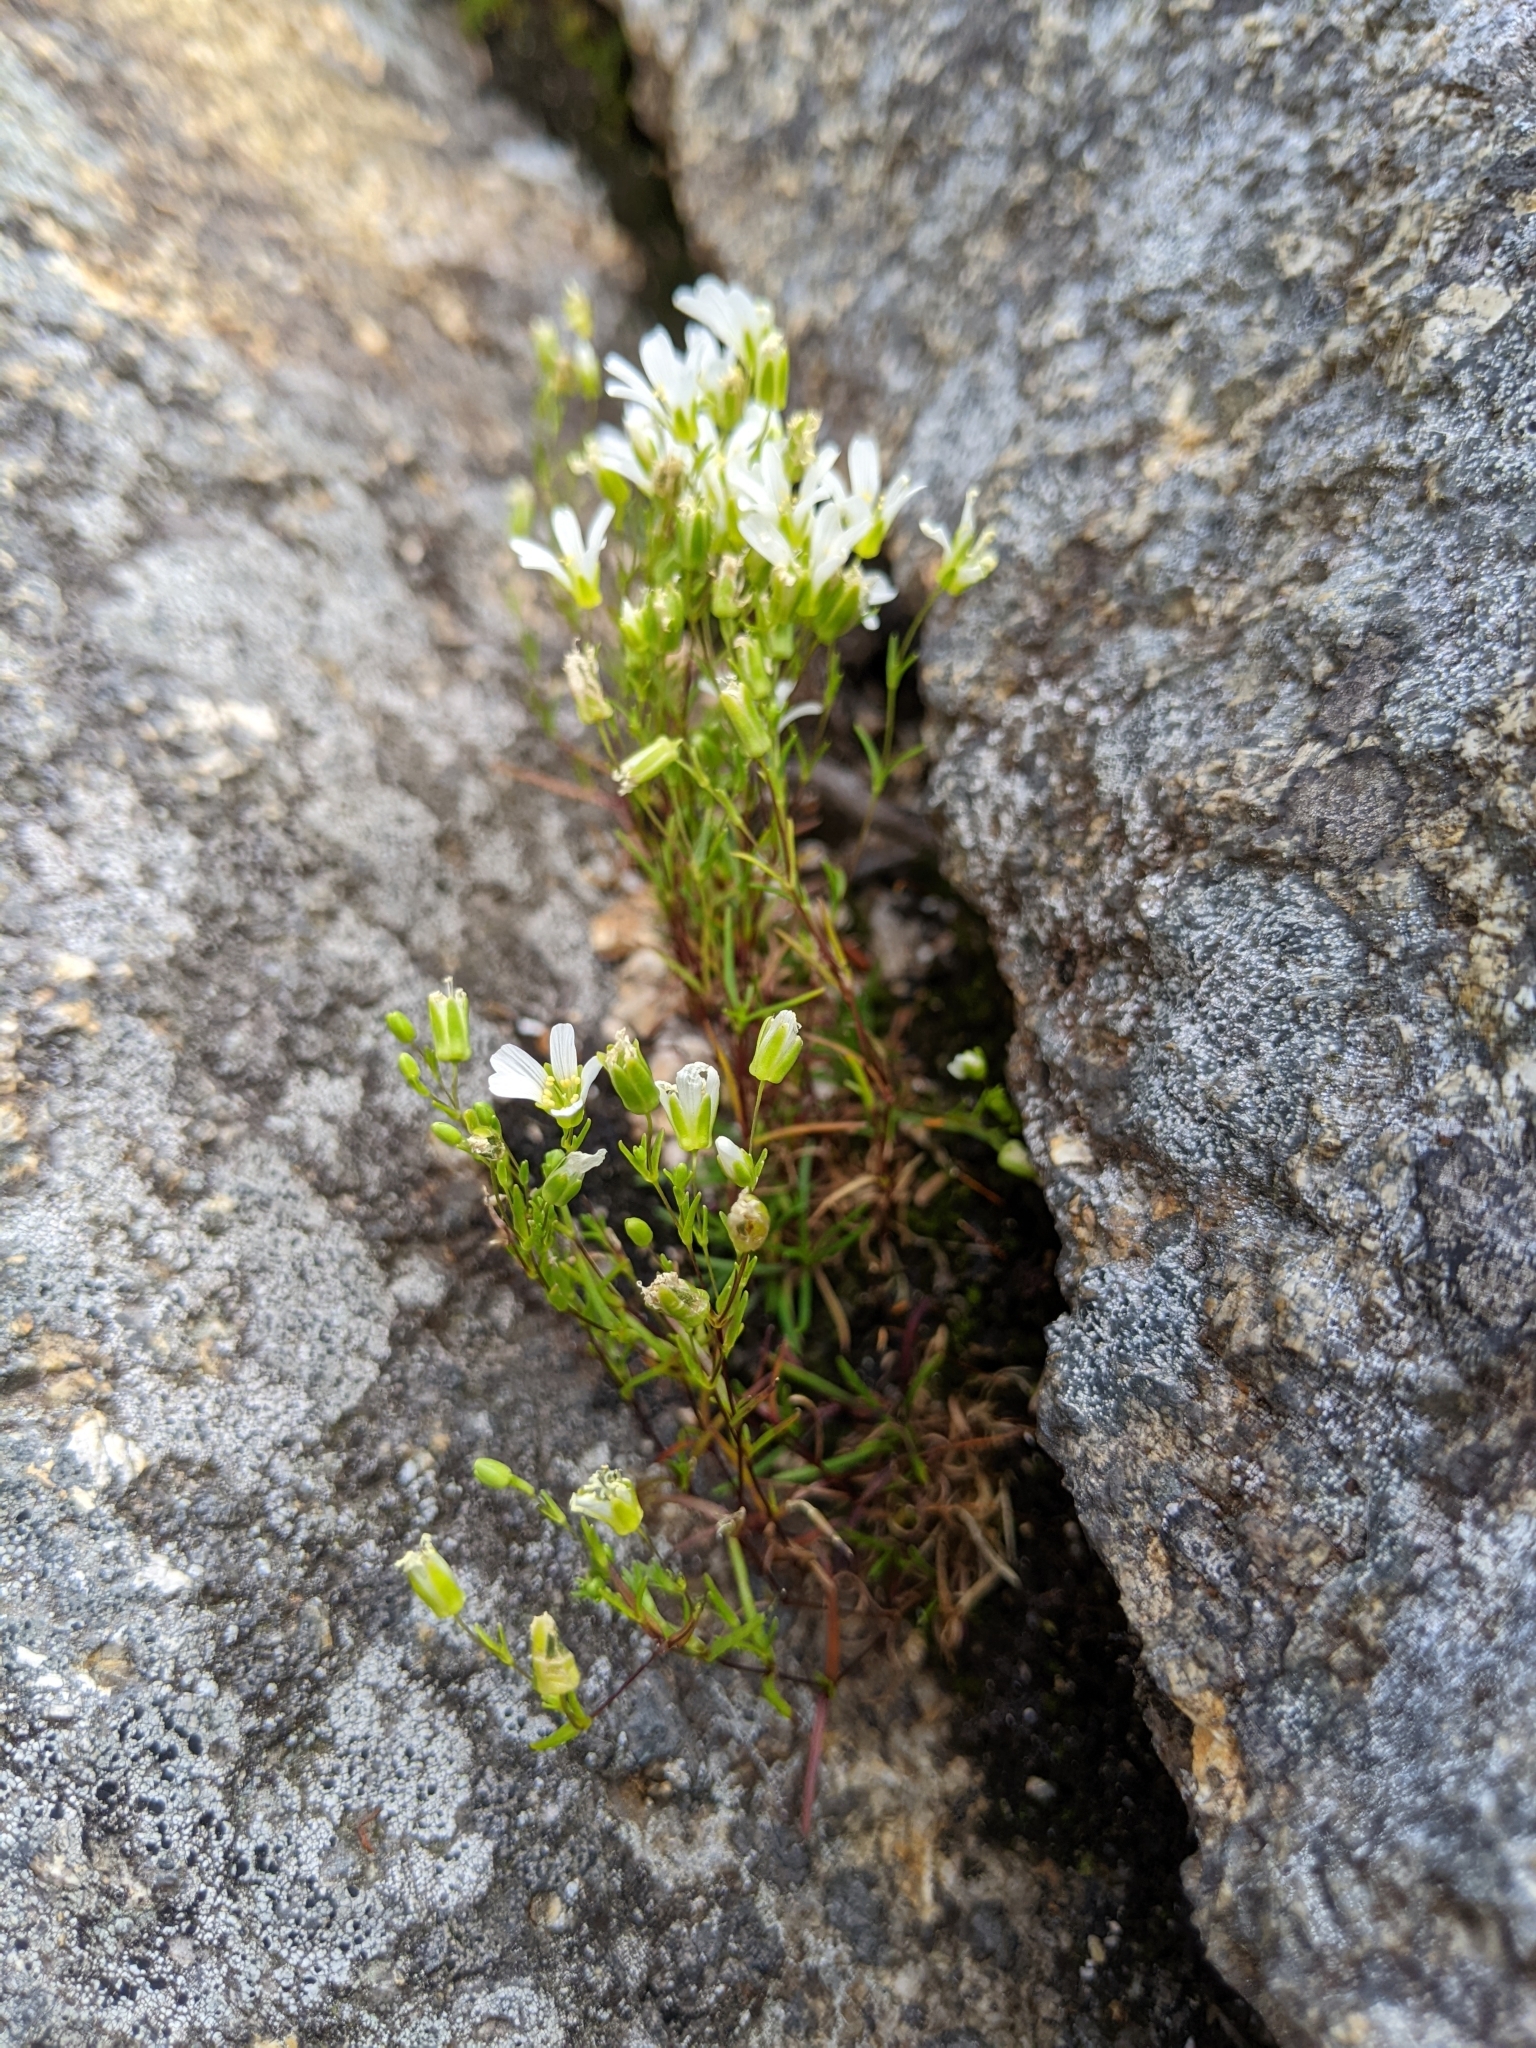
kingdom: Plantae
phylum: Tracheophyta
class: Magnoliopsida
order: Caryophyllales
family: Caryophyllaceae
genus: Geocarpon
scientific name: Geocarpon groenlandicum
